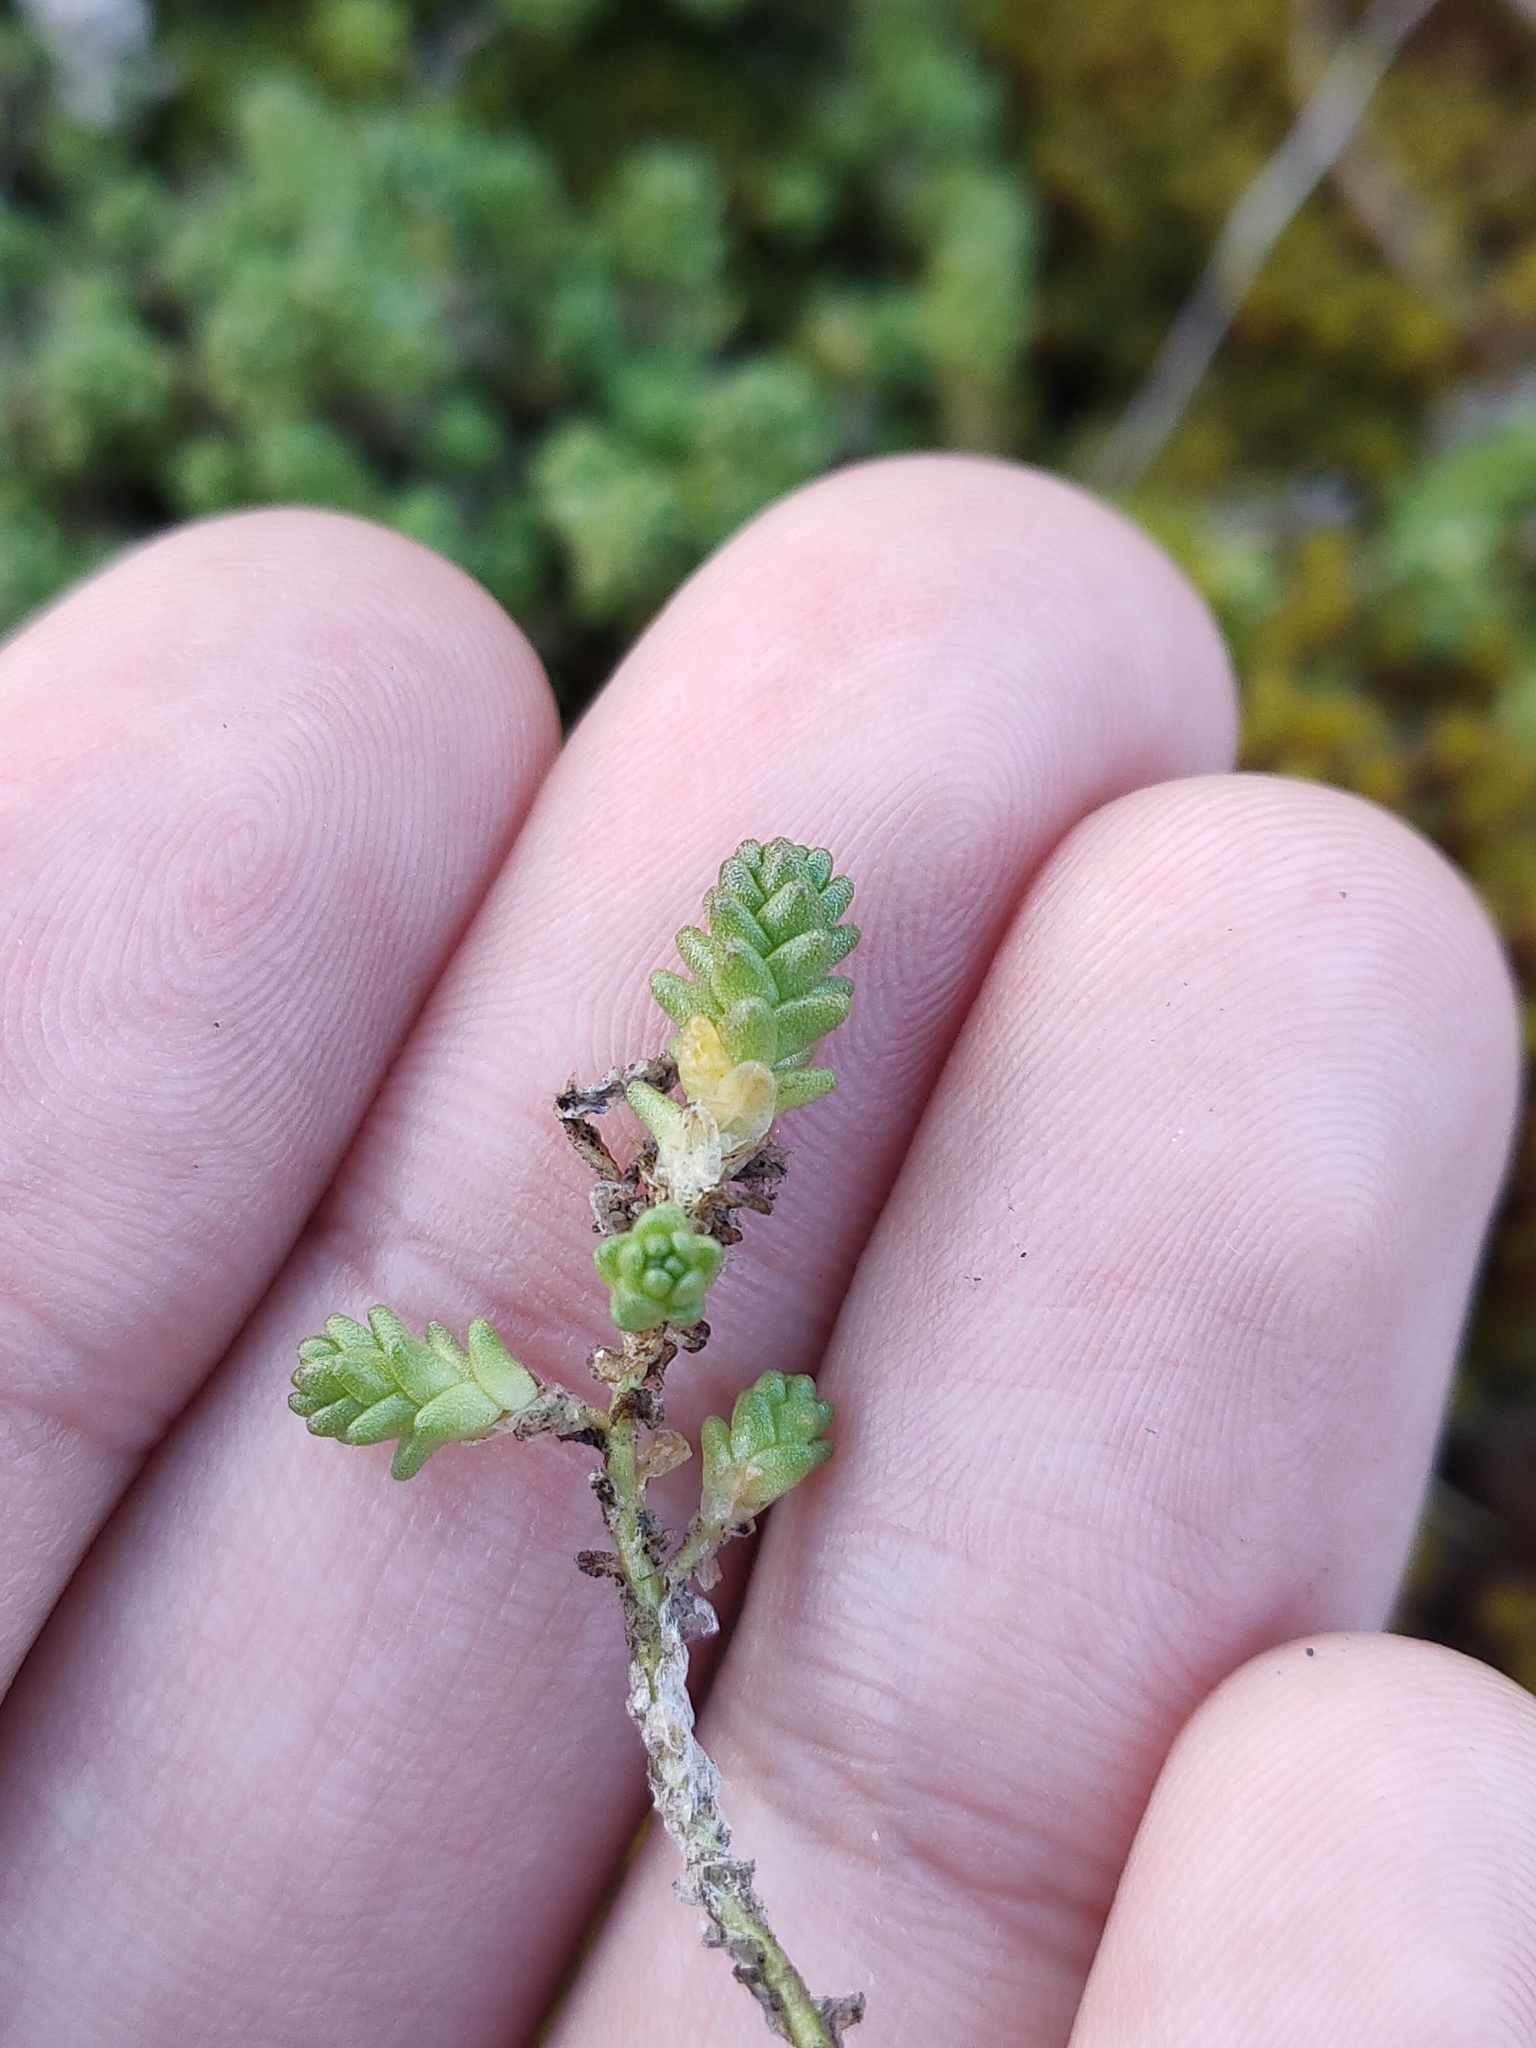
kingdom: Plantae
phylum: Tracheophyta
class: Magnoliopsida
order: Saxifragales
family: Crassulaceae
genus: Sedum
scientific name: Sedum acre
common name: Biting stonecrop
